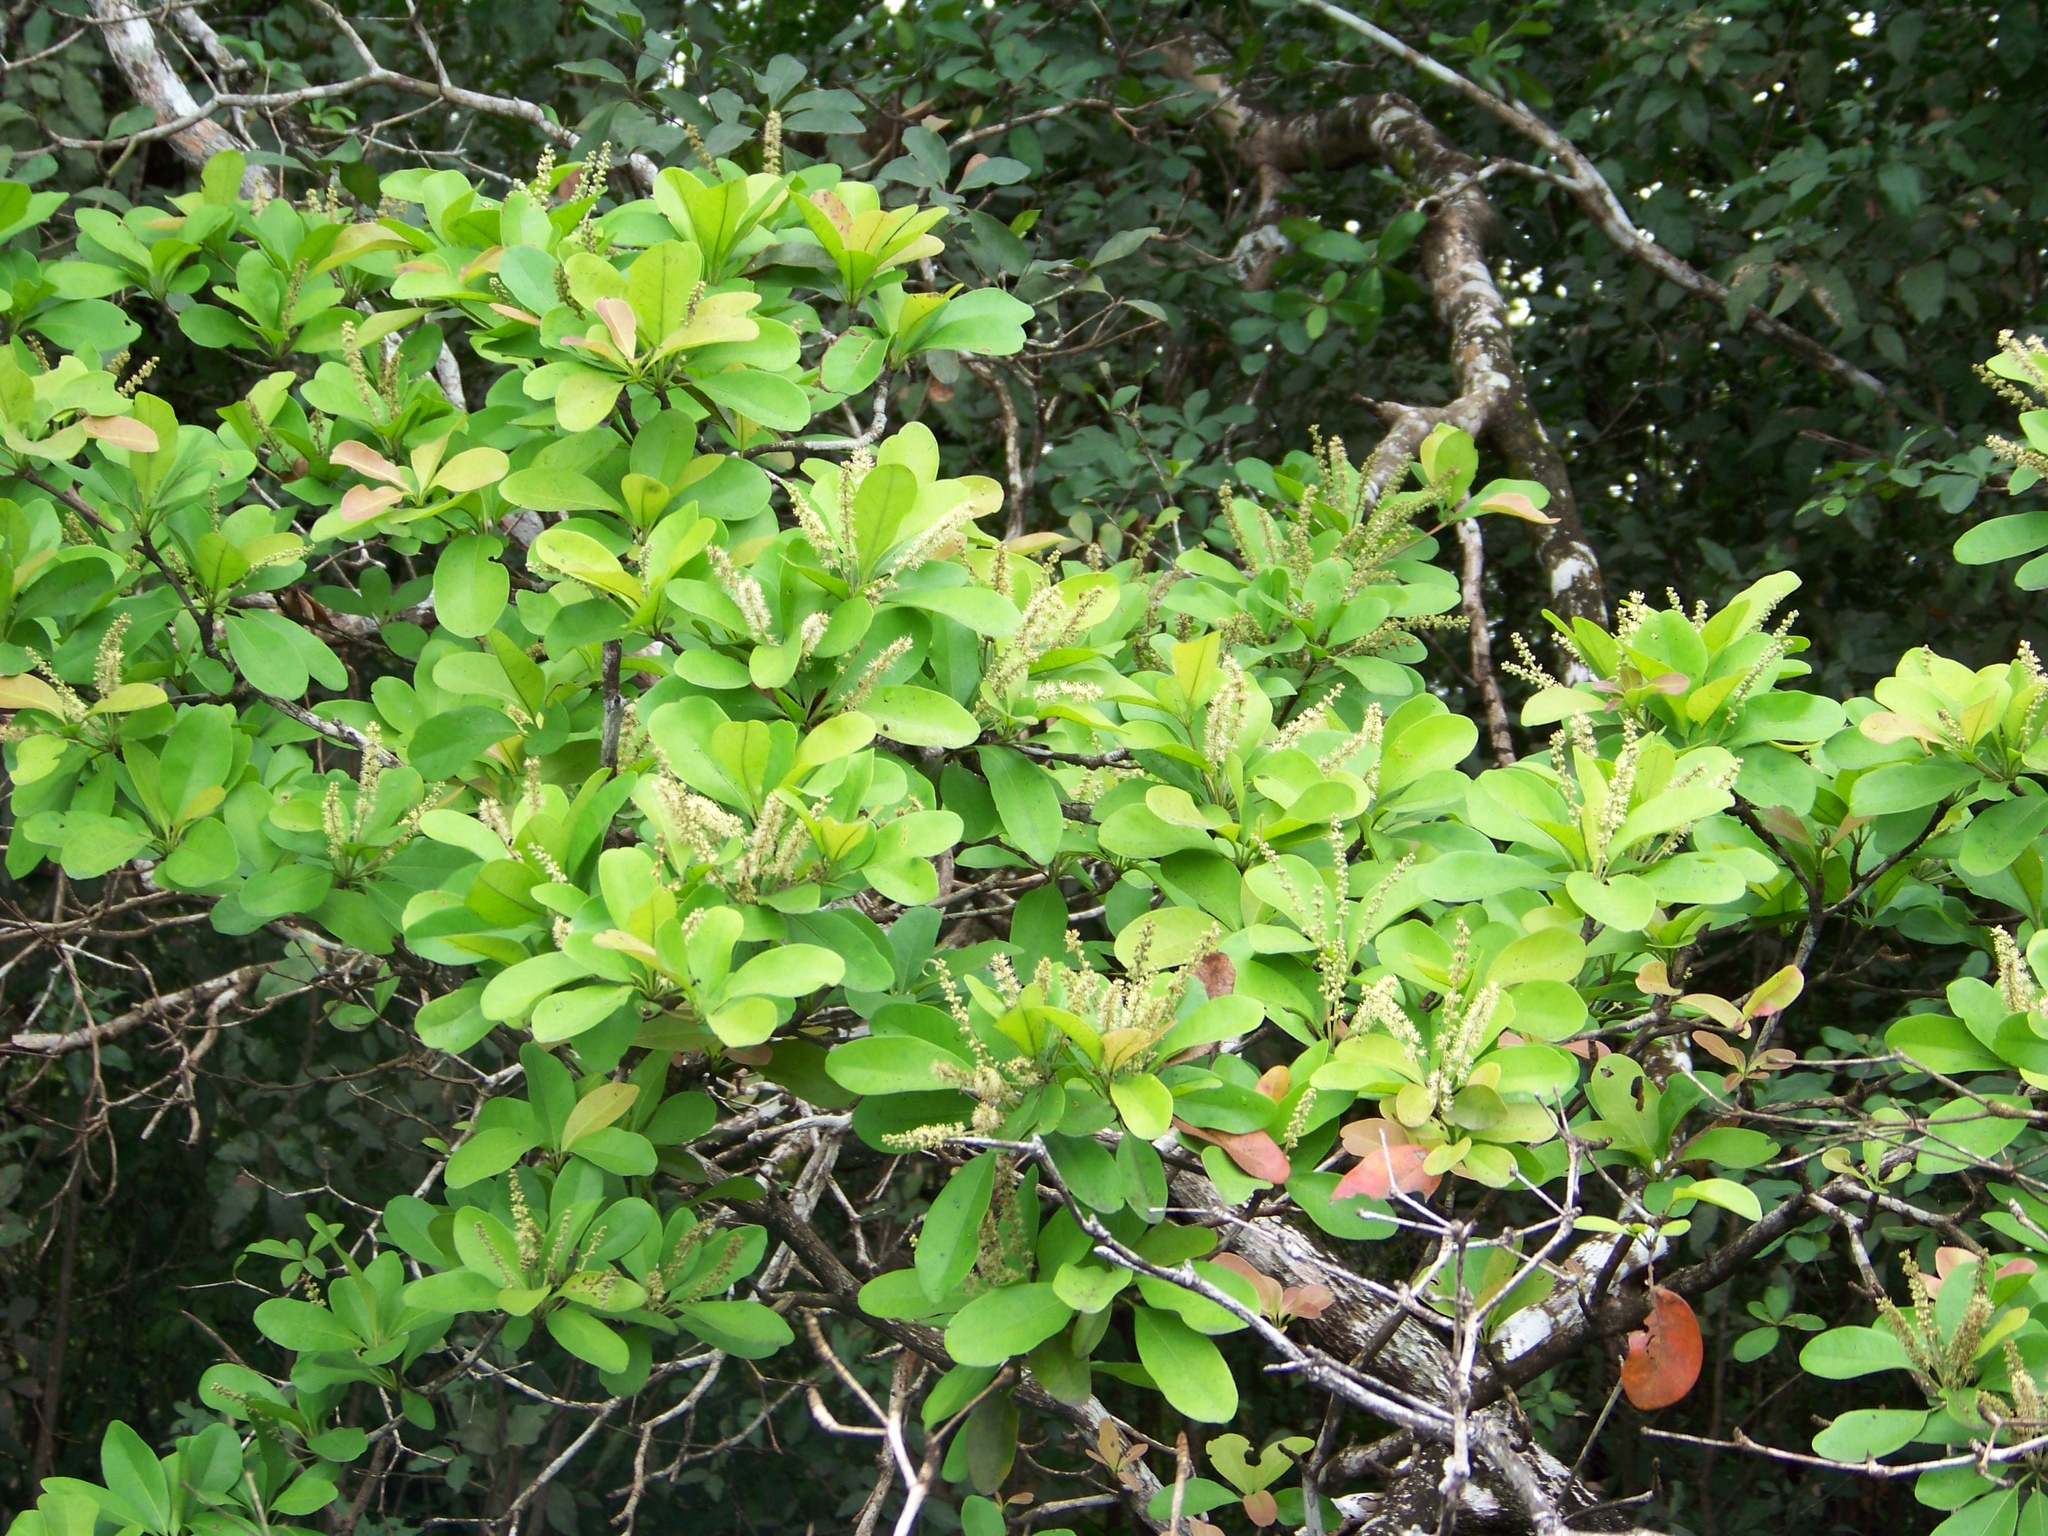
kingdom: Plantae
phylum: Tracheophyta
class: Magnoliopsida
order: Myrtales
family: Combretaceae
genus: Terminalia
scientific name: Terminalia buceras
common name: Black-olive
